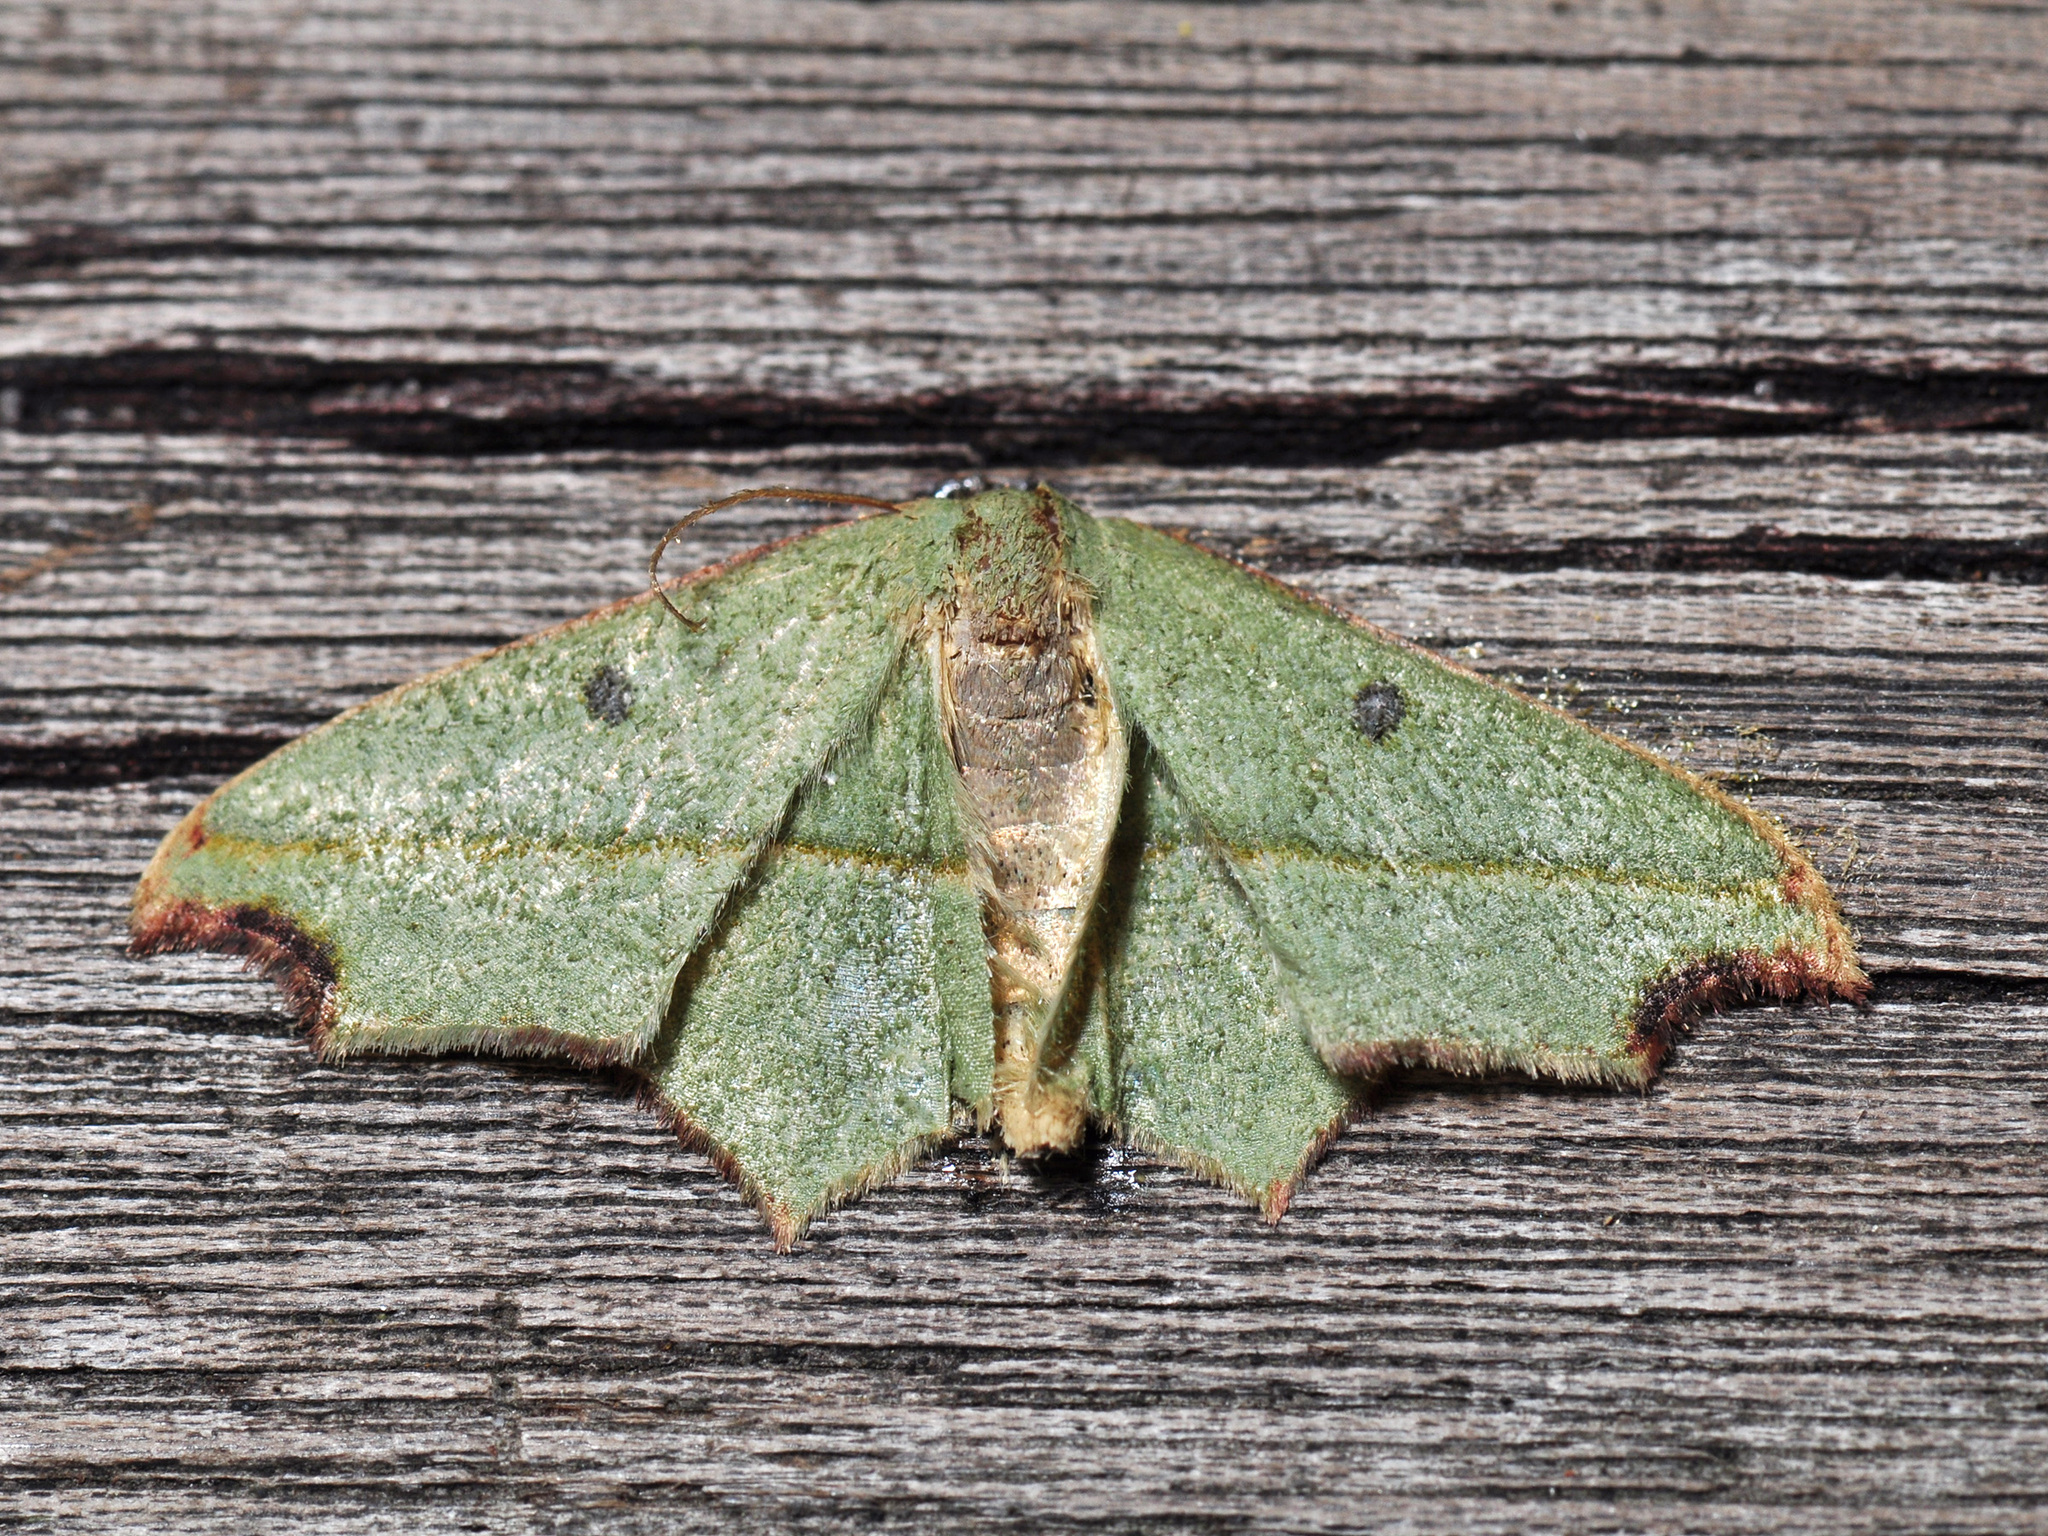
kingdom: Animalia
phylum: Arthropoda
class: Insecta
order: Lepidoptera
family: Geometridae
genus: Traminda
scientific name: Traminda aventiaria
